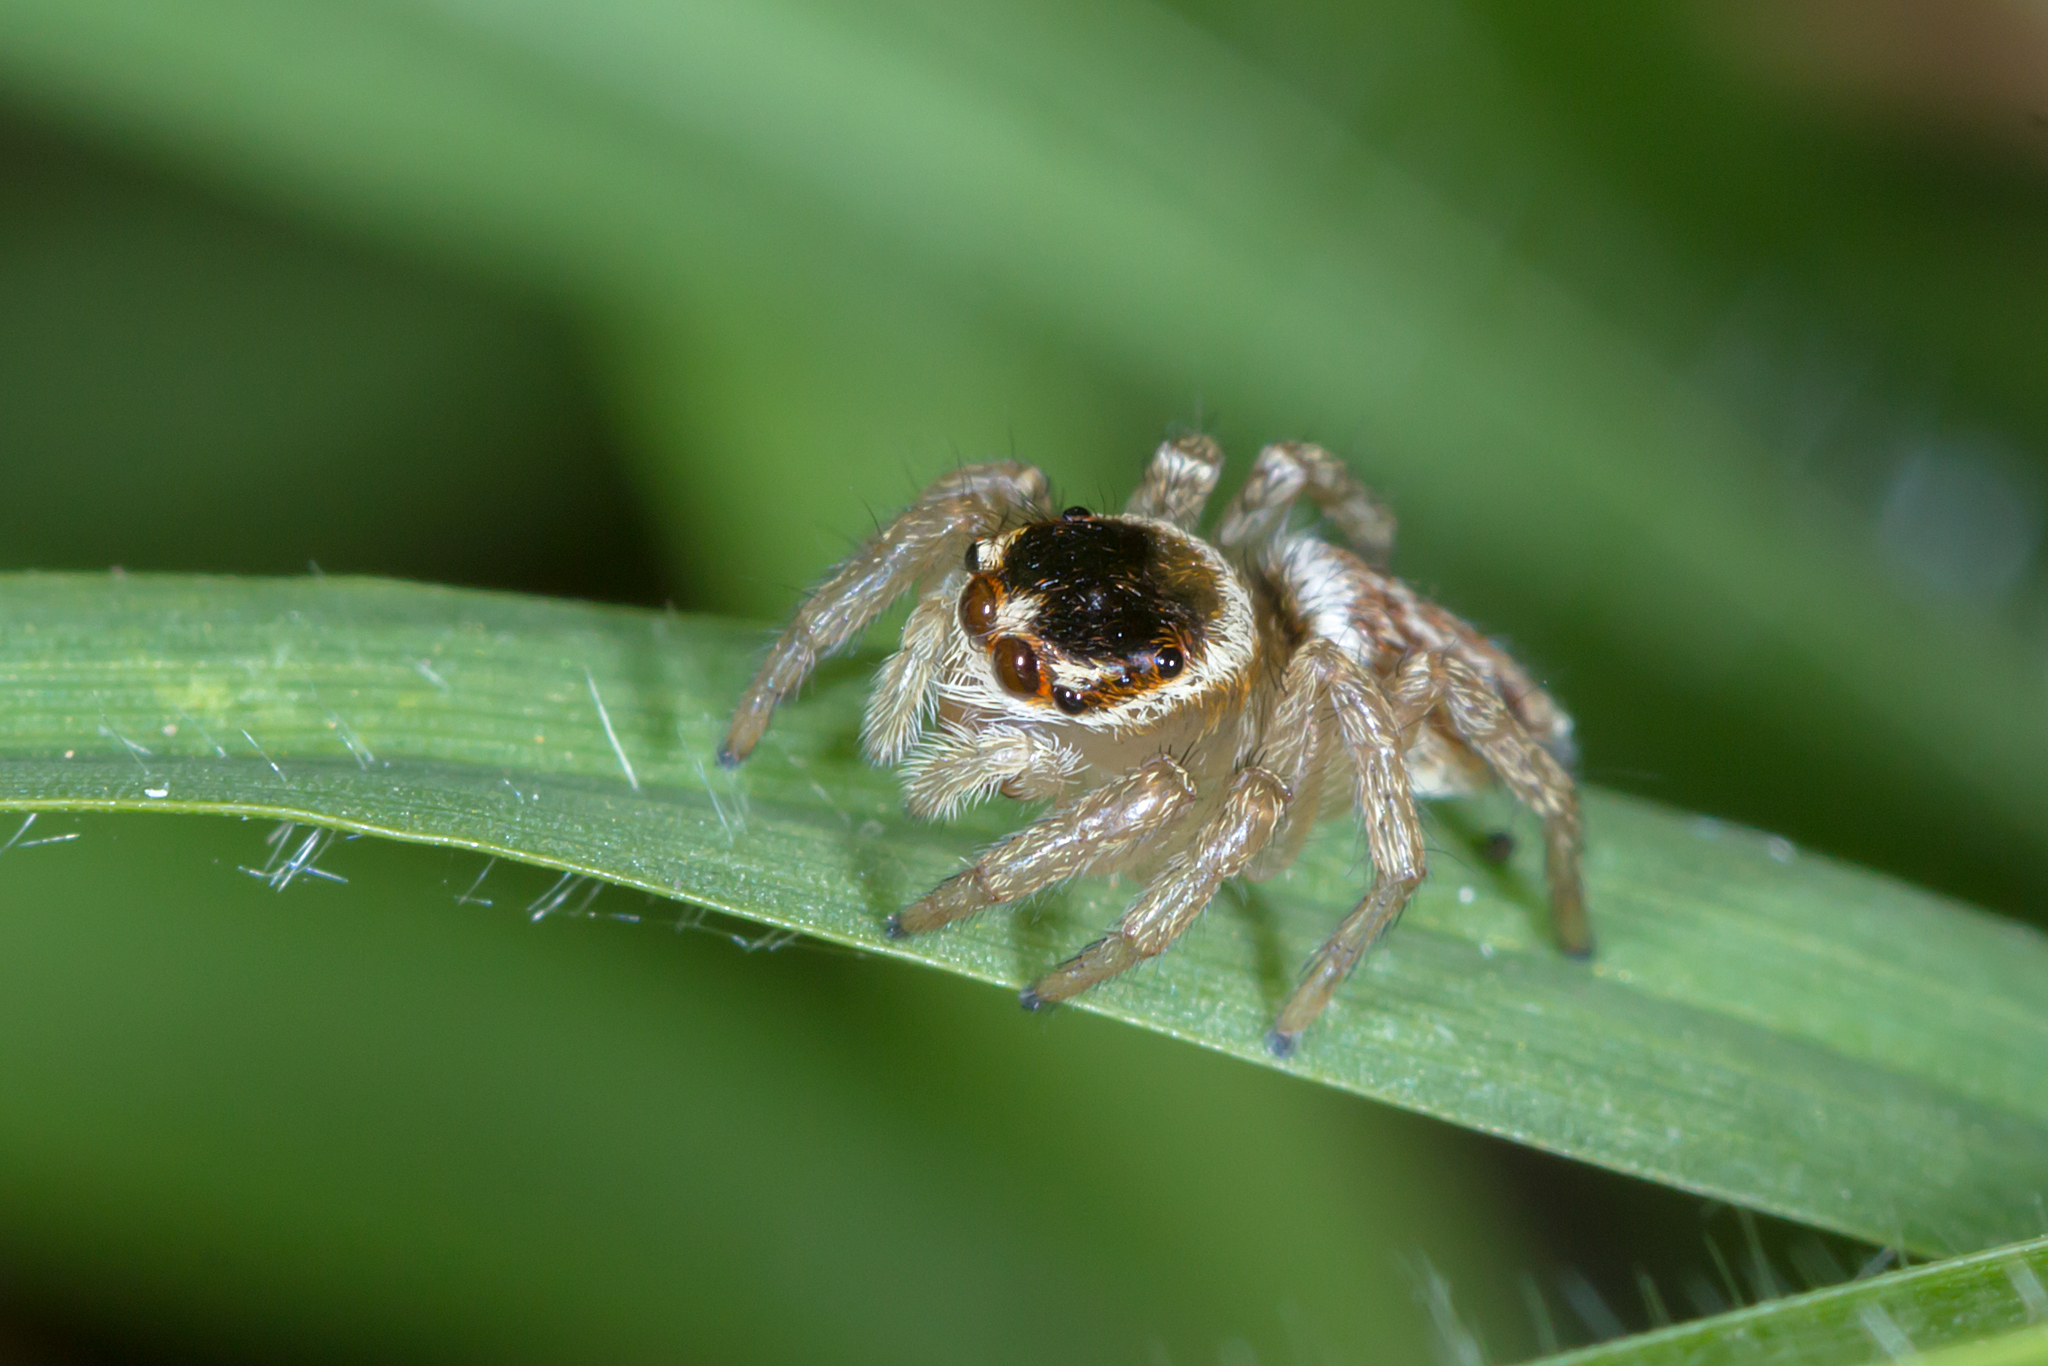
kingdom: Animalia
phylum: Arthropoda
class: Arachnida
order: Araneae
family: Salticidae
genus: Maratus
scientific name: Maratus griseus
